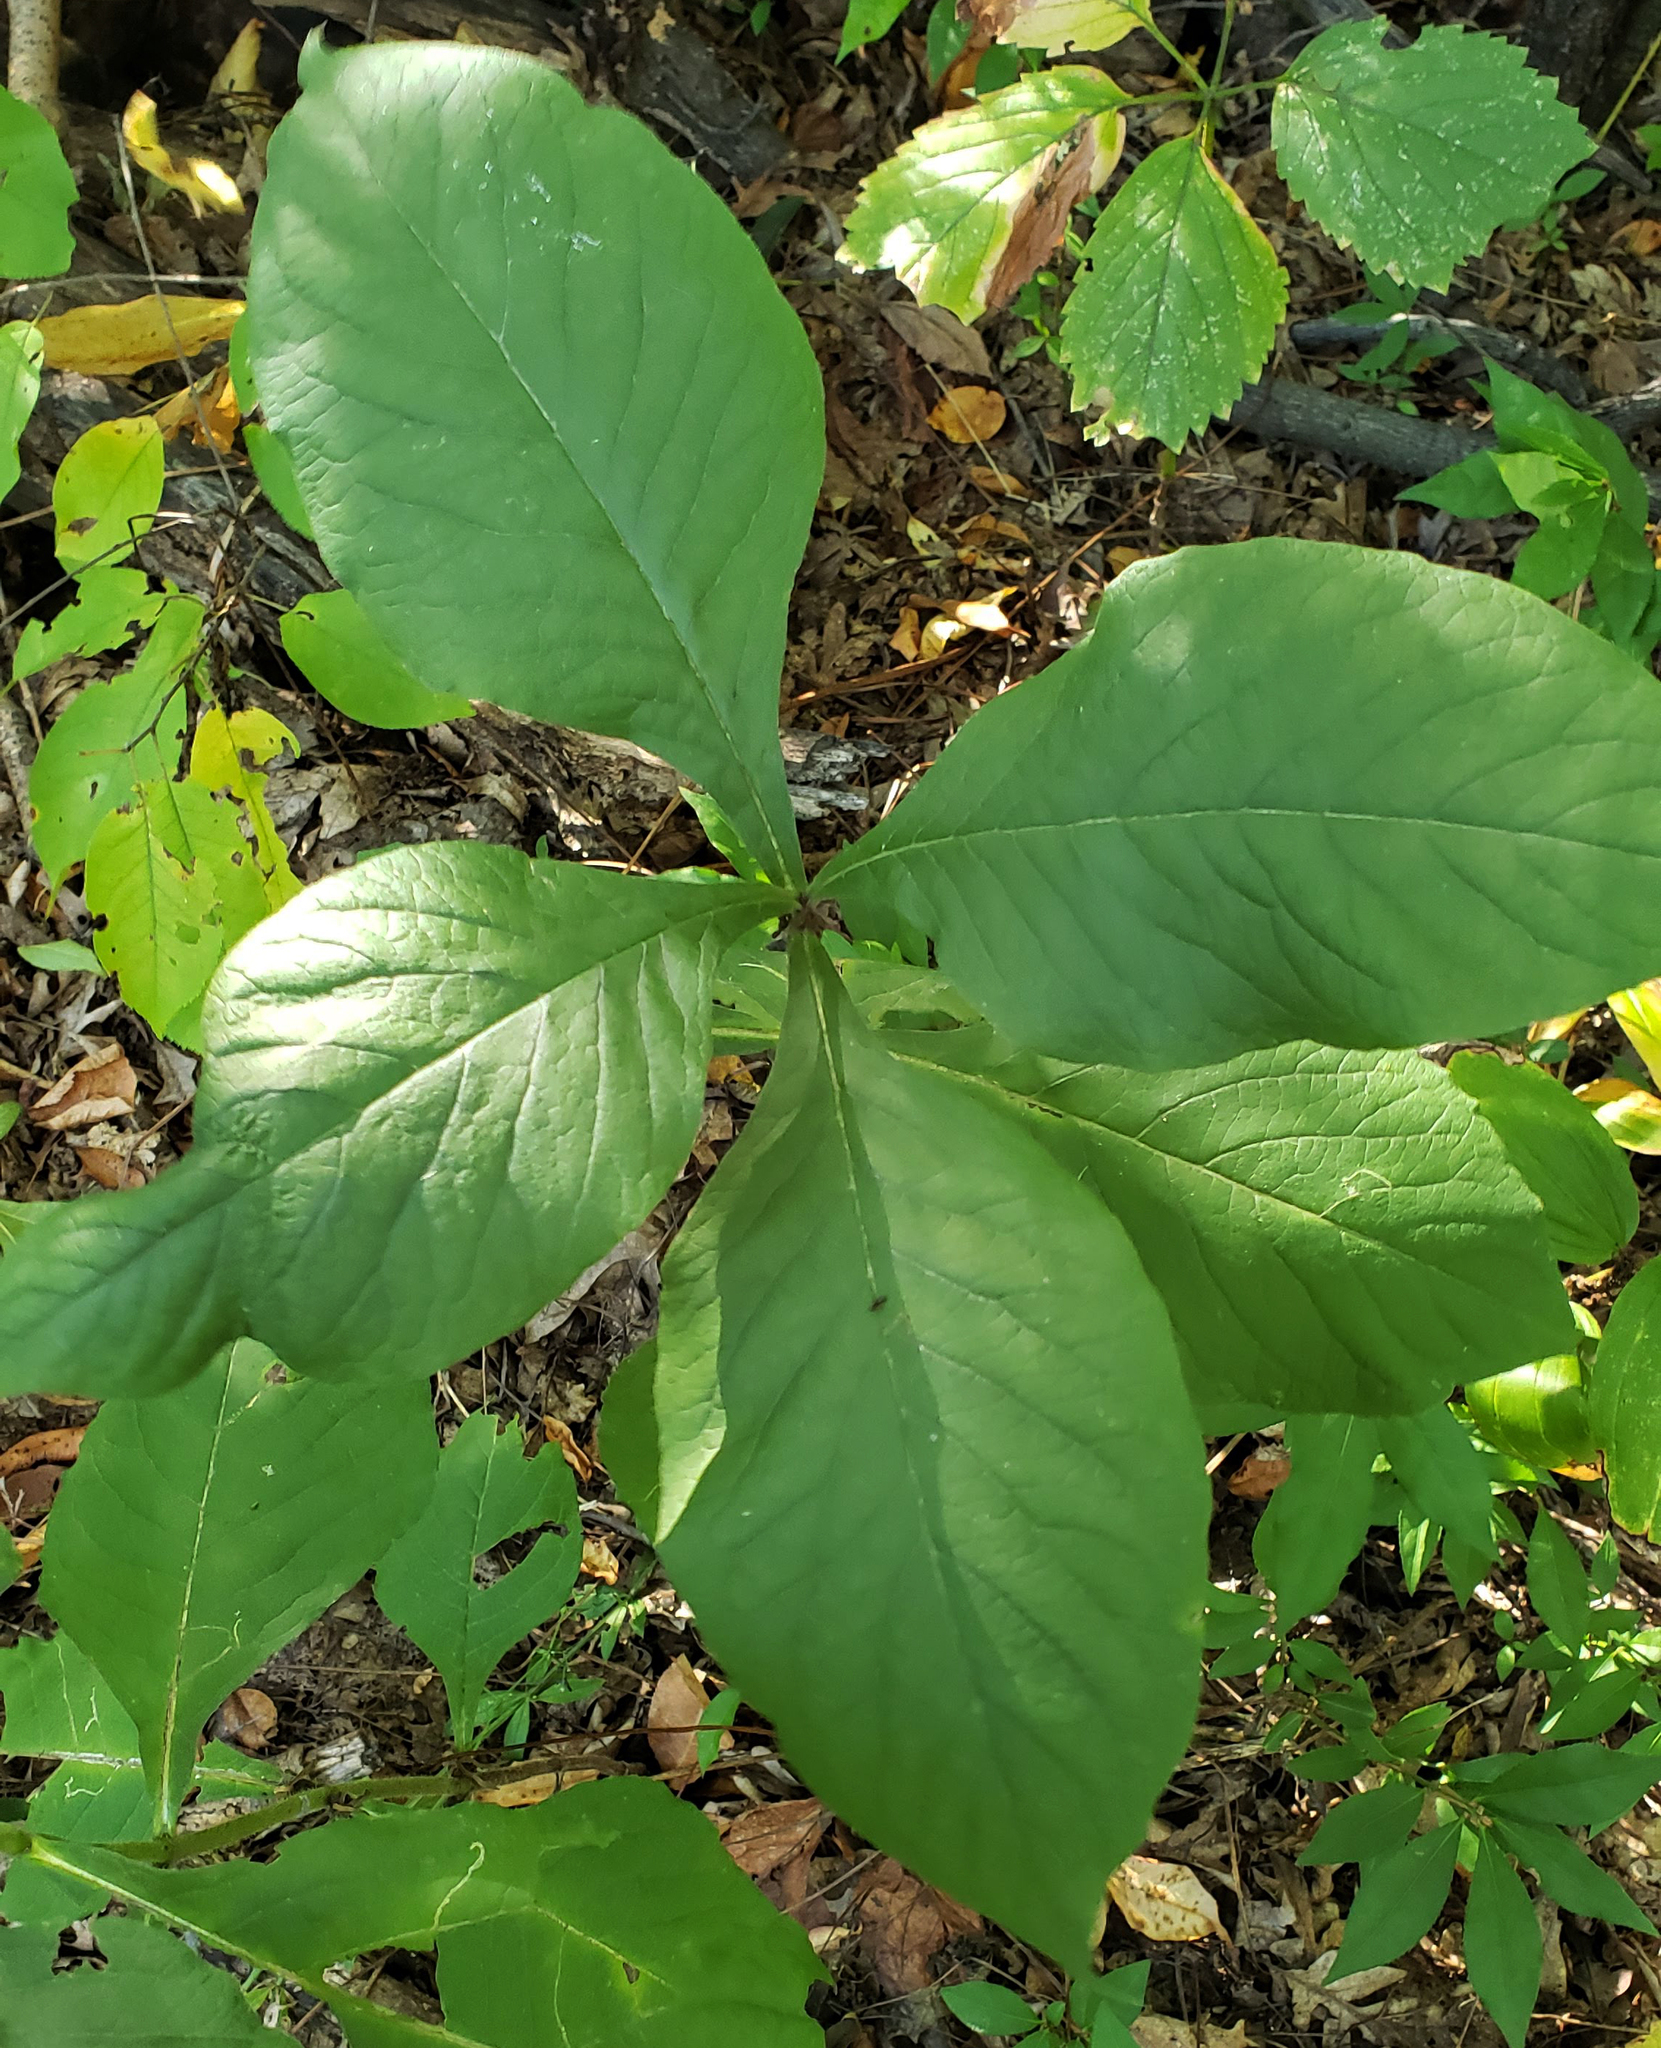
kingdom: Plantae
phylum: Tracheophyta
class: Magnoliopsida
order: Dipsacales
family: Caprifoliaceae
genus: Triosteum
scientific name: Triosteum aurantiacum
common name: Coffee tinker's-weed
